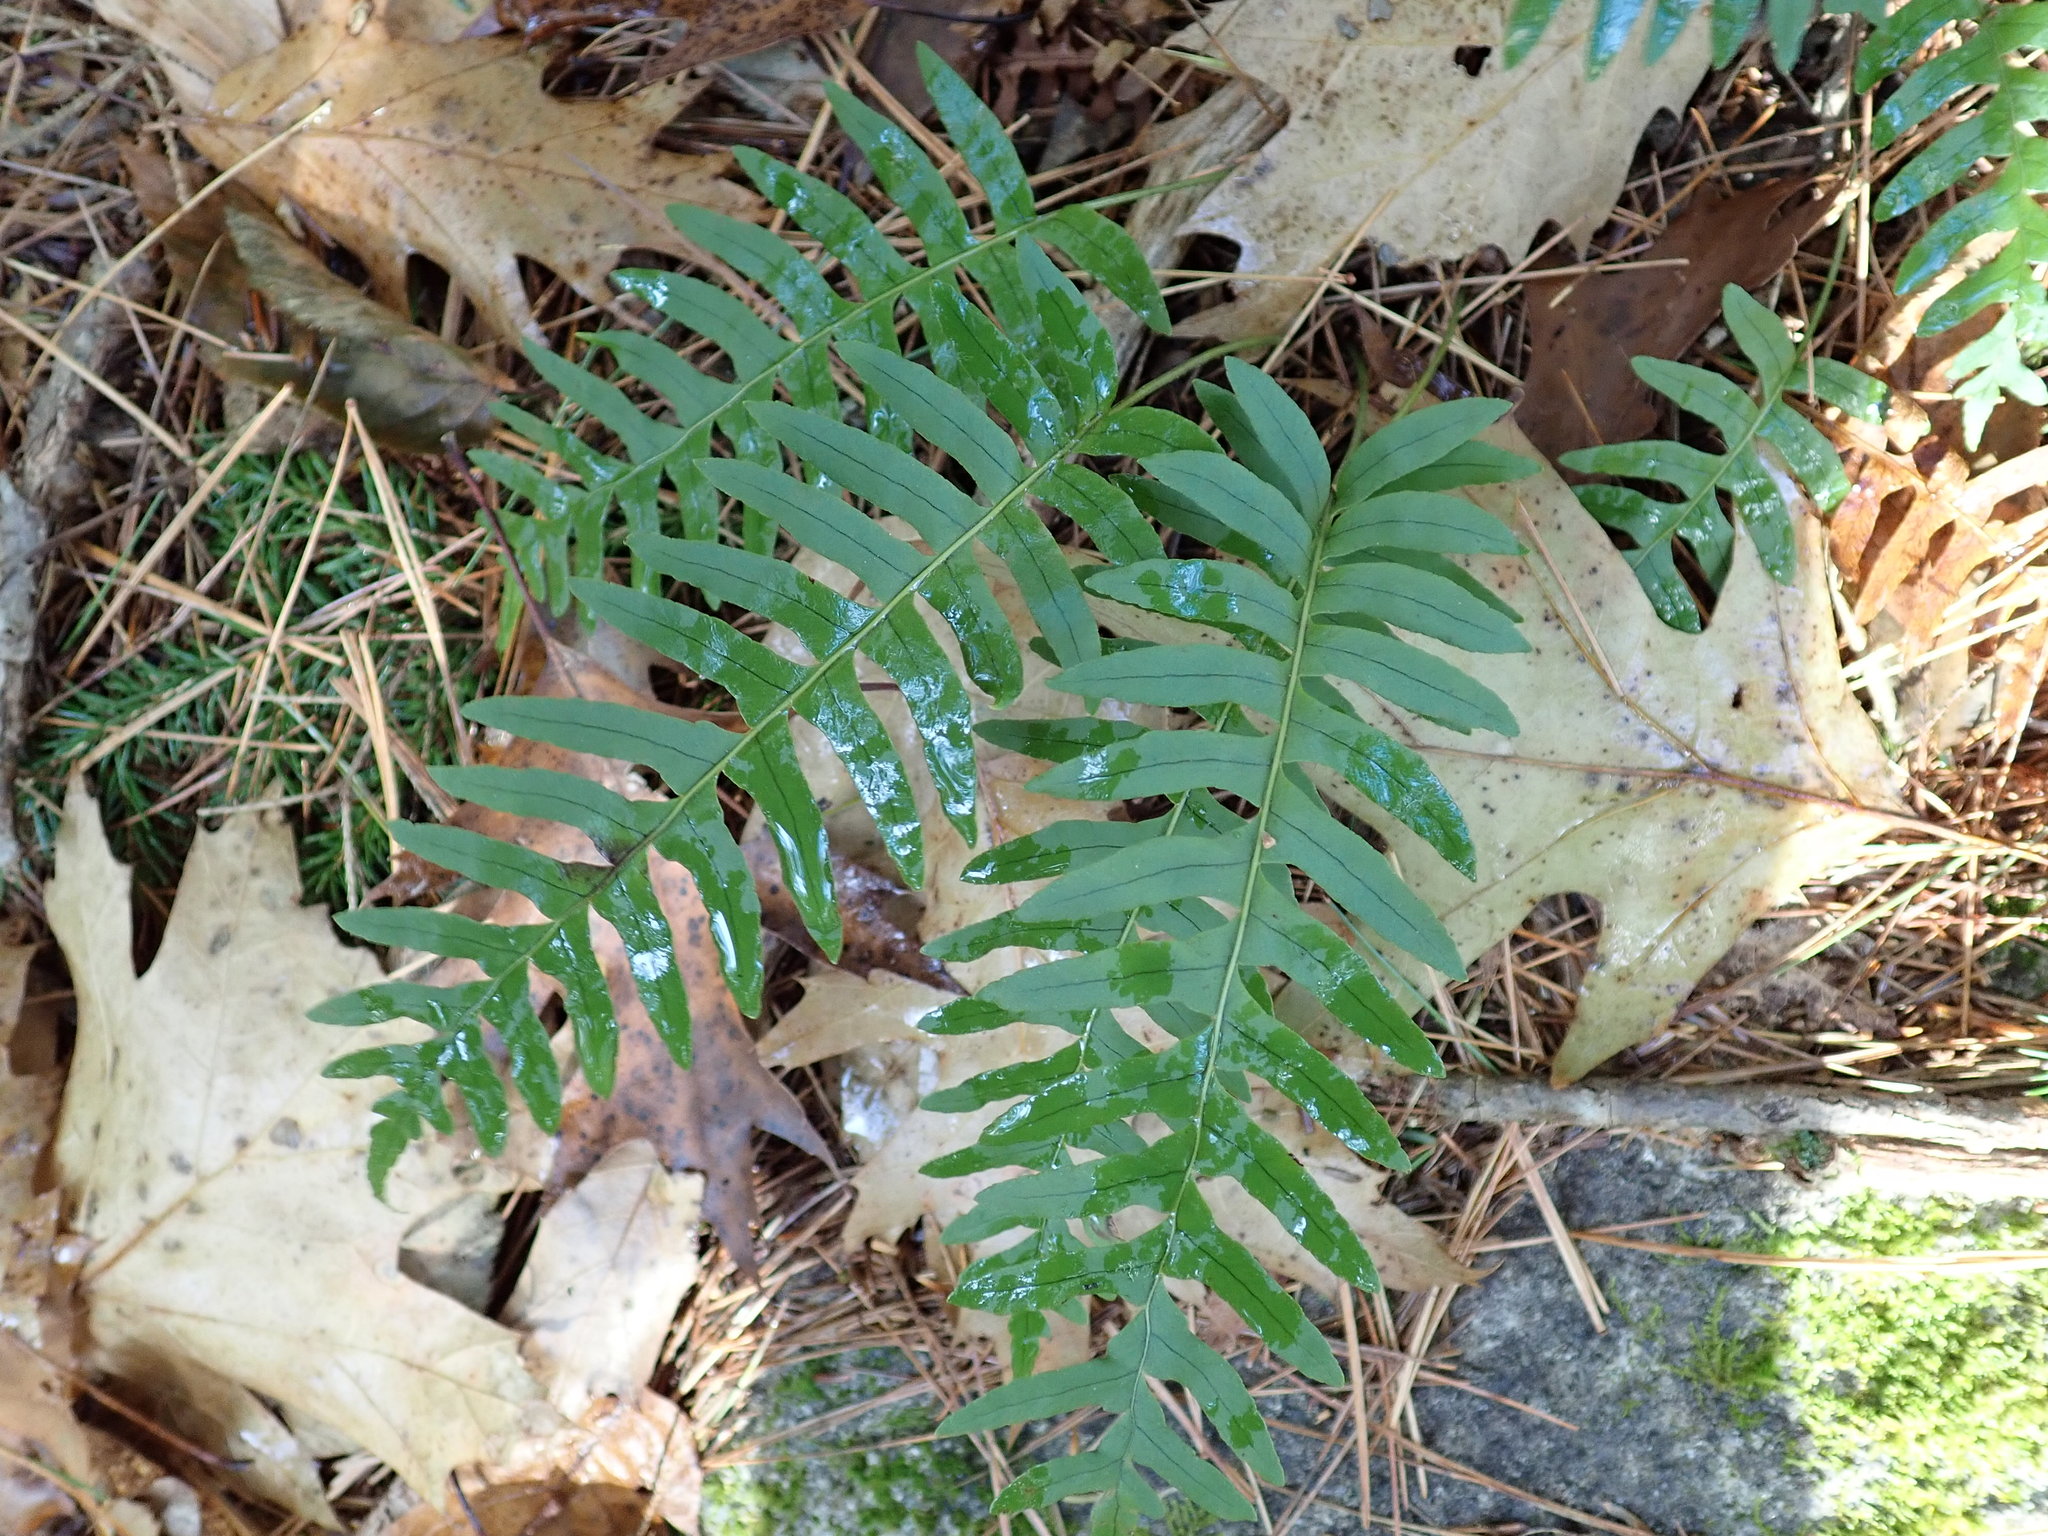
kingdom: Plantae
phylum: Tracheophyta
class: Polypodiopsida
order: Polypodiales
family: Polypodiaceae
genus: Polypodium
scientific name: Polypodium
